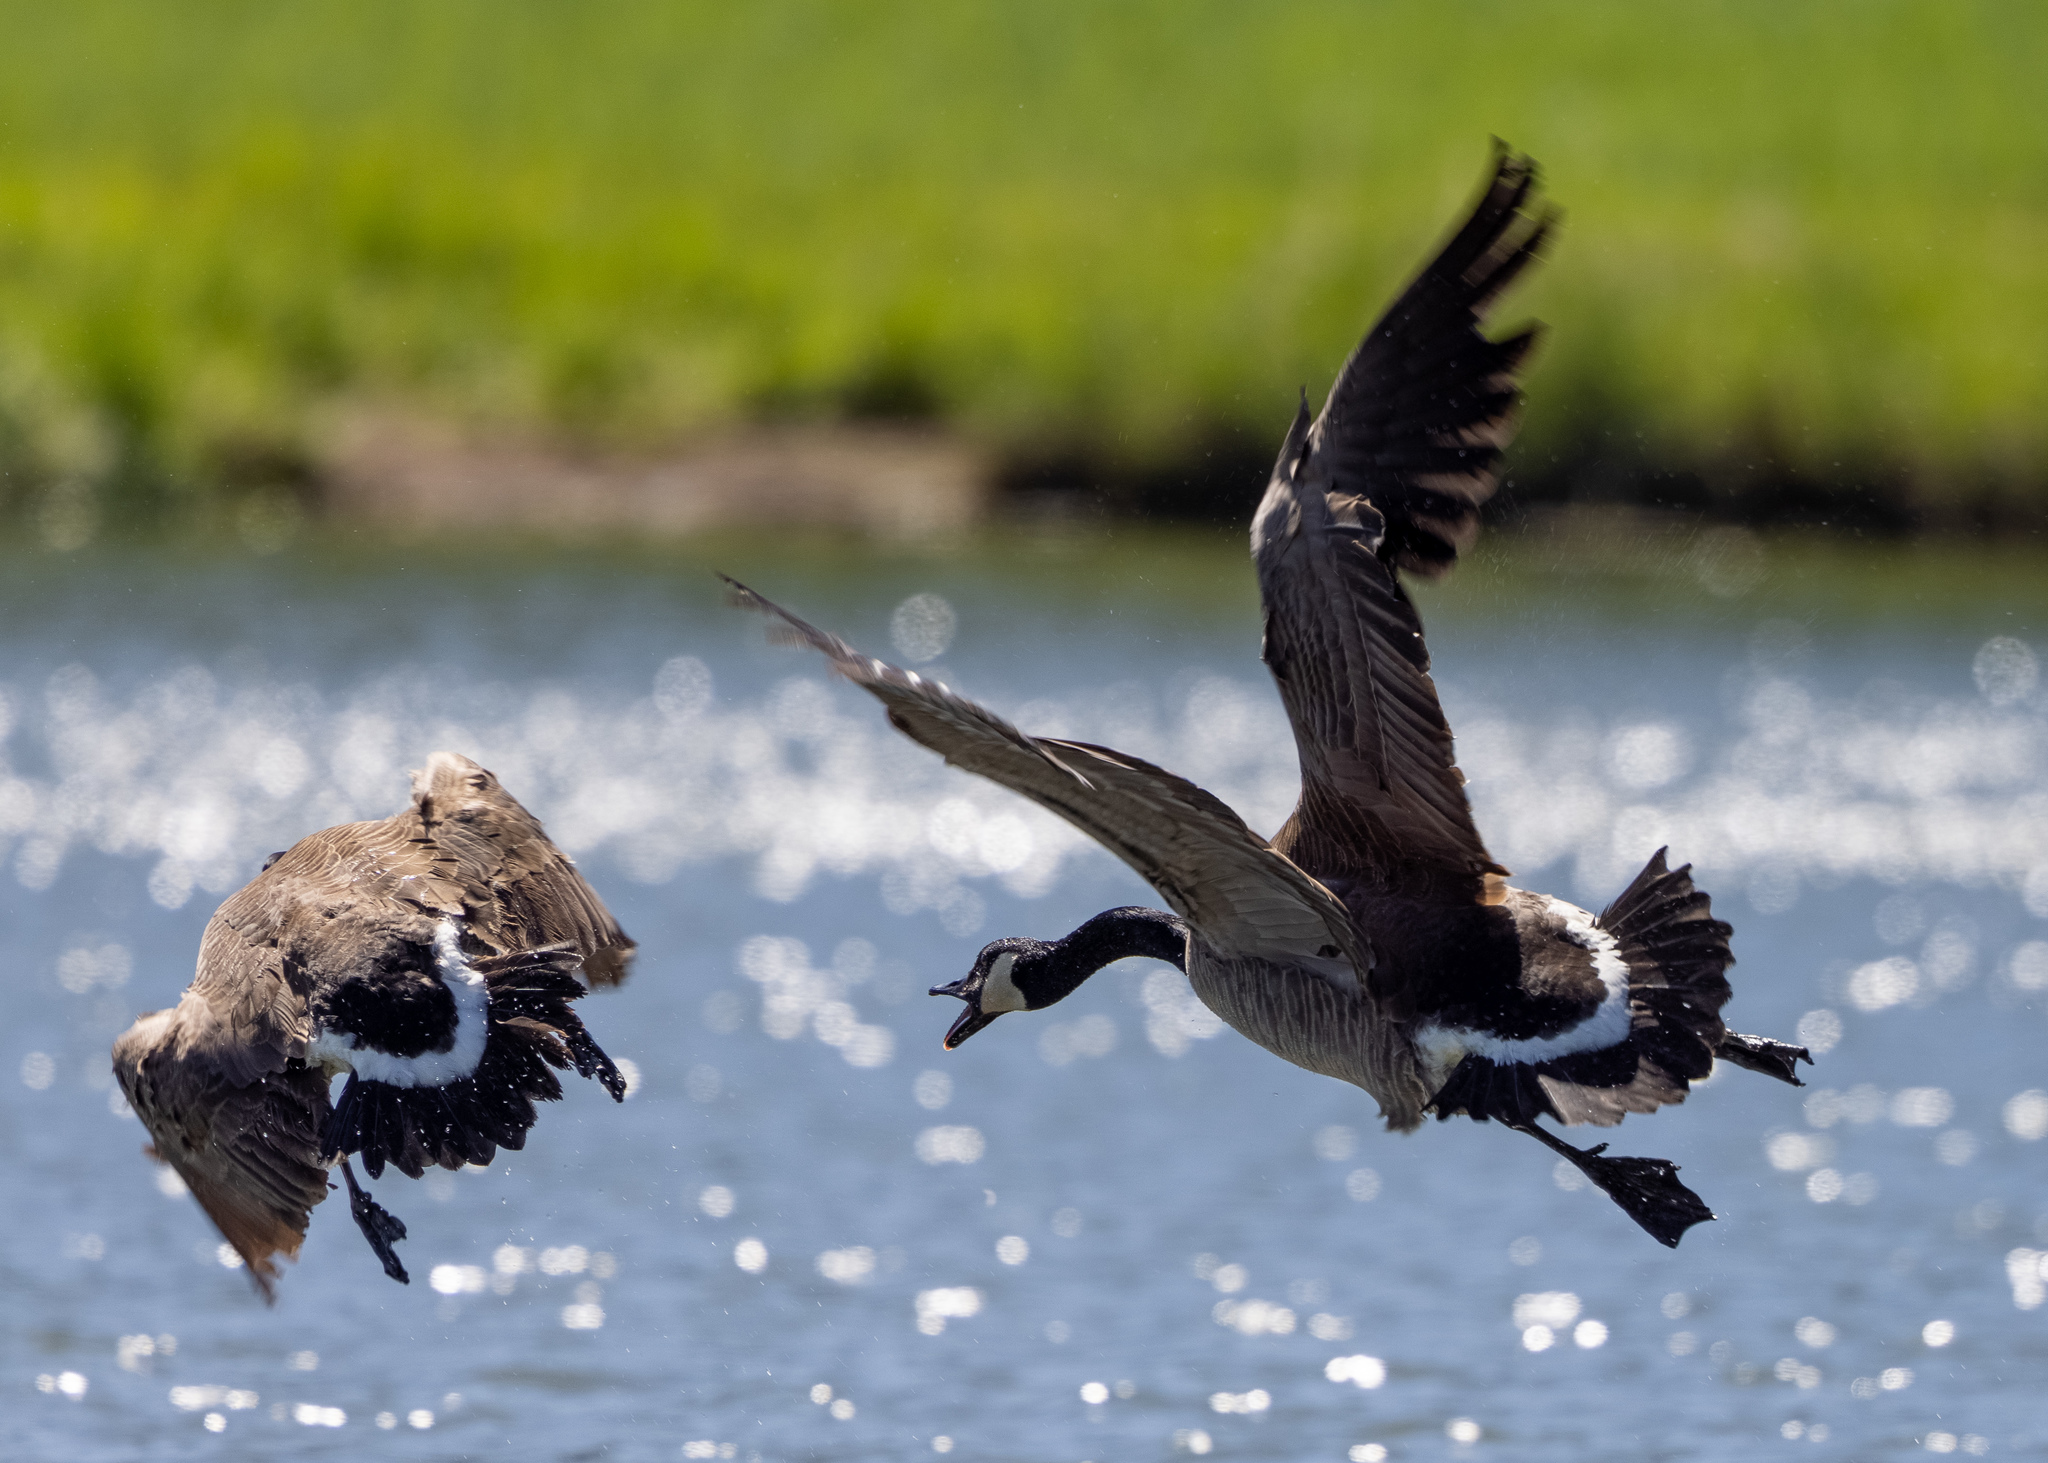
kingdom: Animalia
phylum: Chordata
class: Aves
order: Anseriformes
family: Anatidae
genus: Branta
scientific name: Branta canadensis
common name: Canada goose
